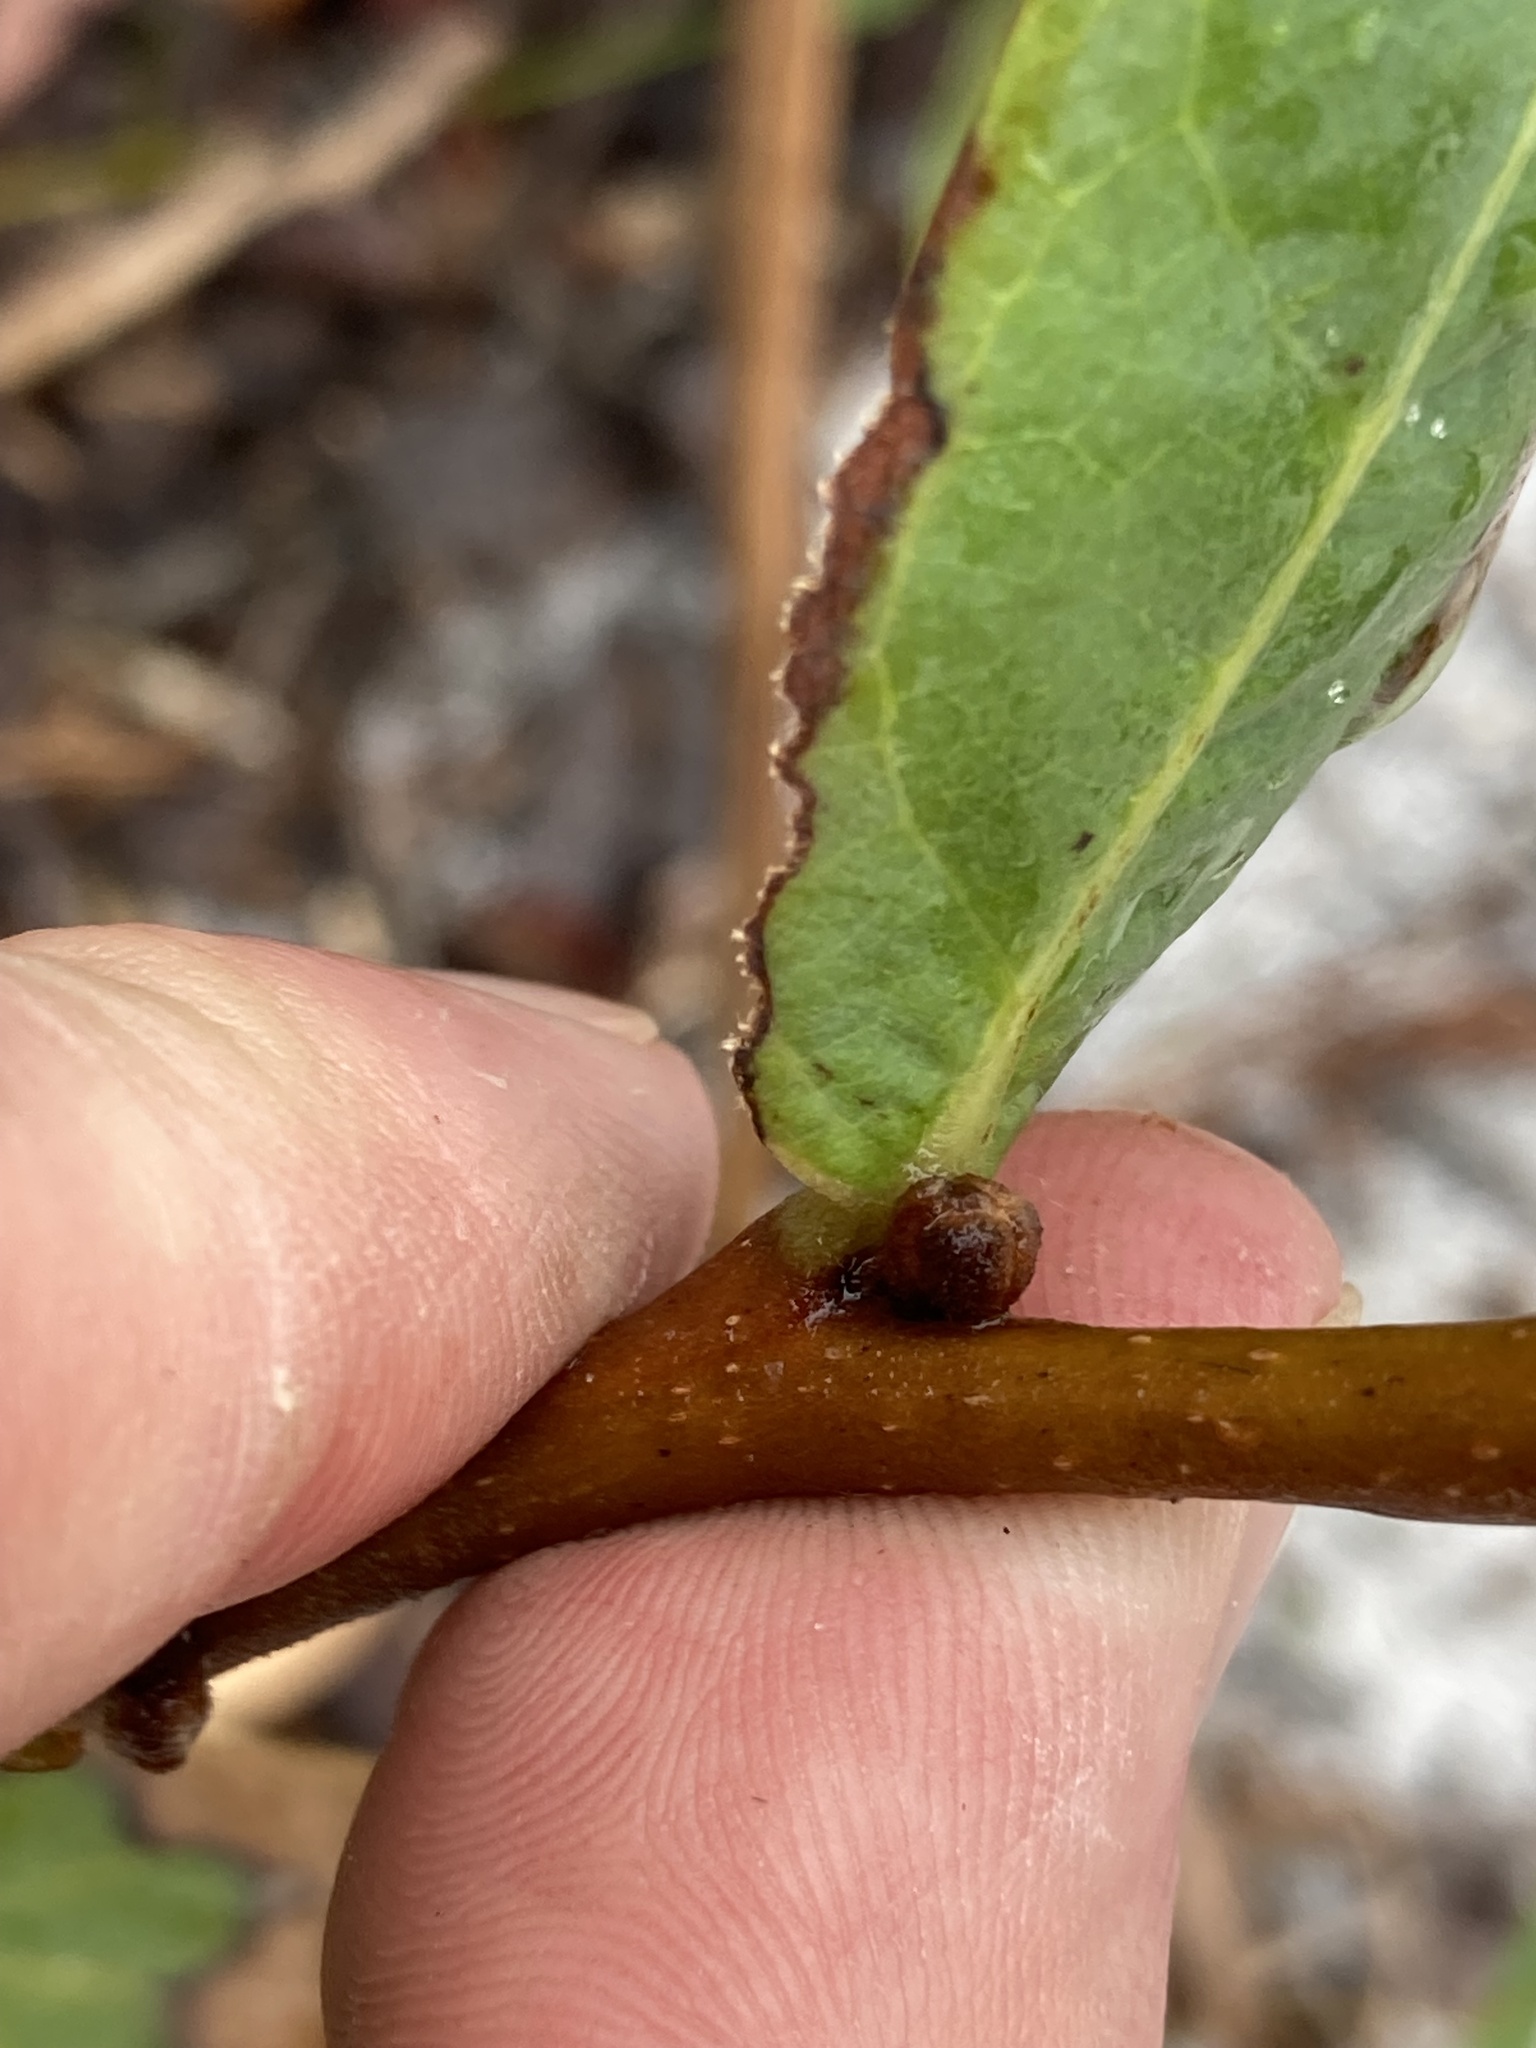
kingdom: Plantae
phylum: Tracheophyta
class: Magnoliopsida
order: Magnoliales
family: Annonaceae
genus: Asimina
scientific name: Asimina reticulata
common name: Flag pawpaw
